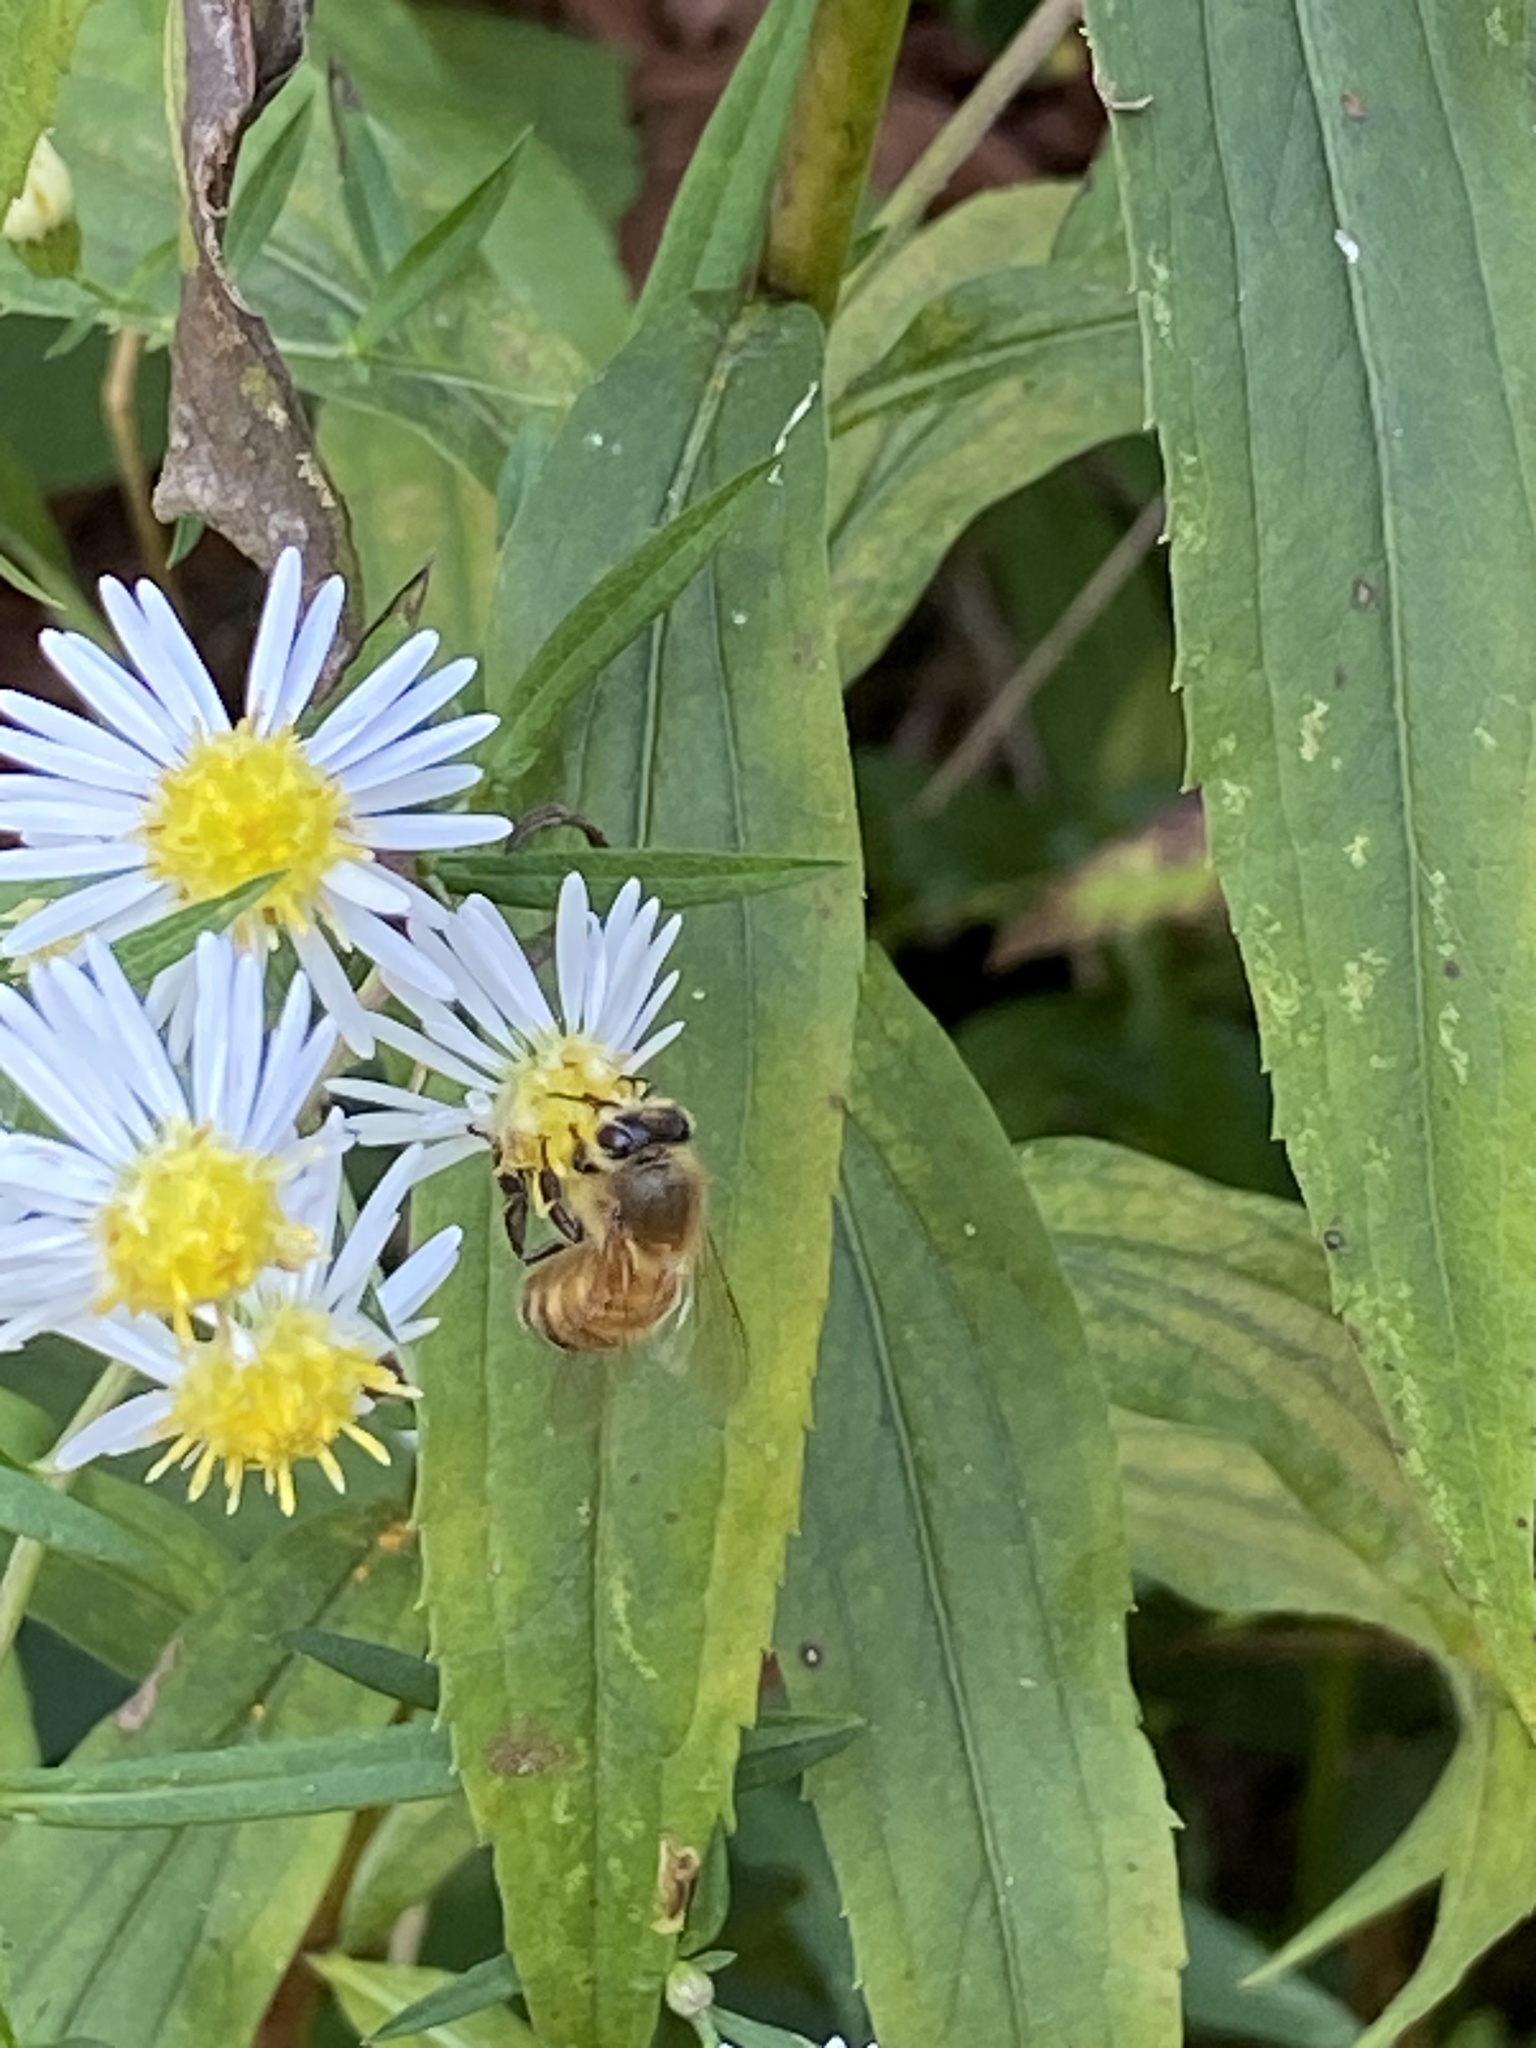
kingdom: Animalia
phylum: Arthropoda
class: Insecta
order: Hymenoptera
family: Apidae
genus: Apis
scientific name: Apis mellifera
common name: Honey bee
